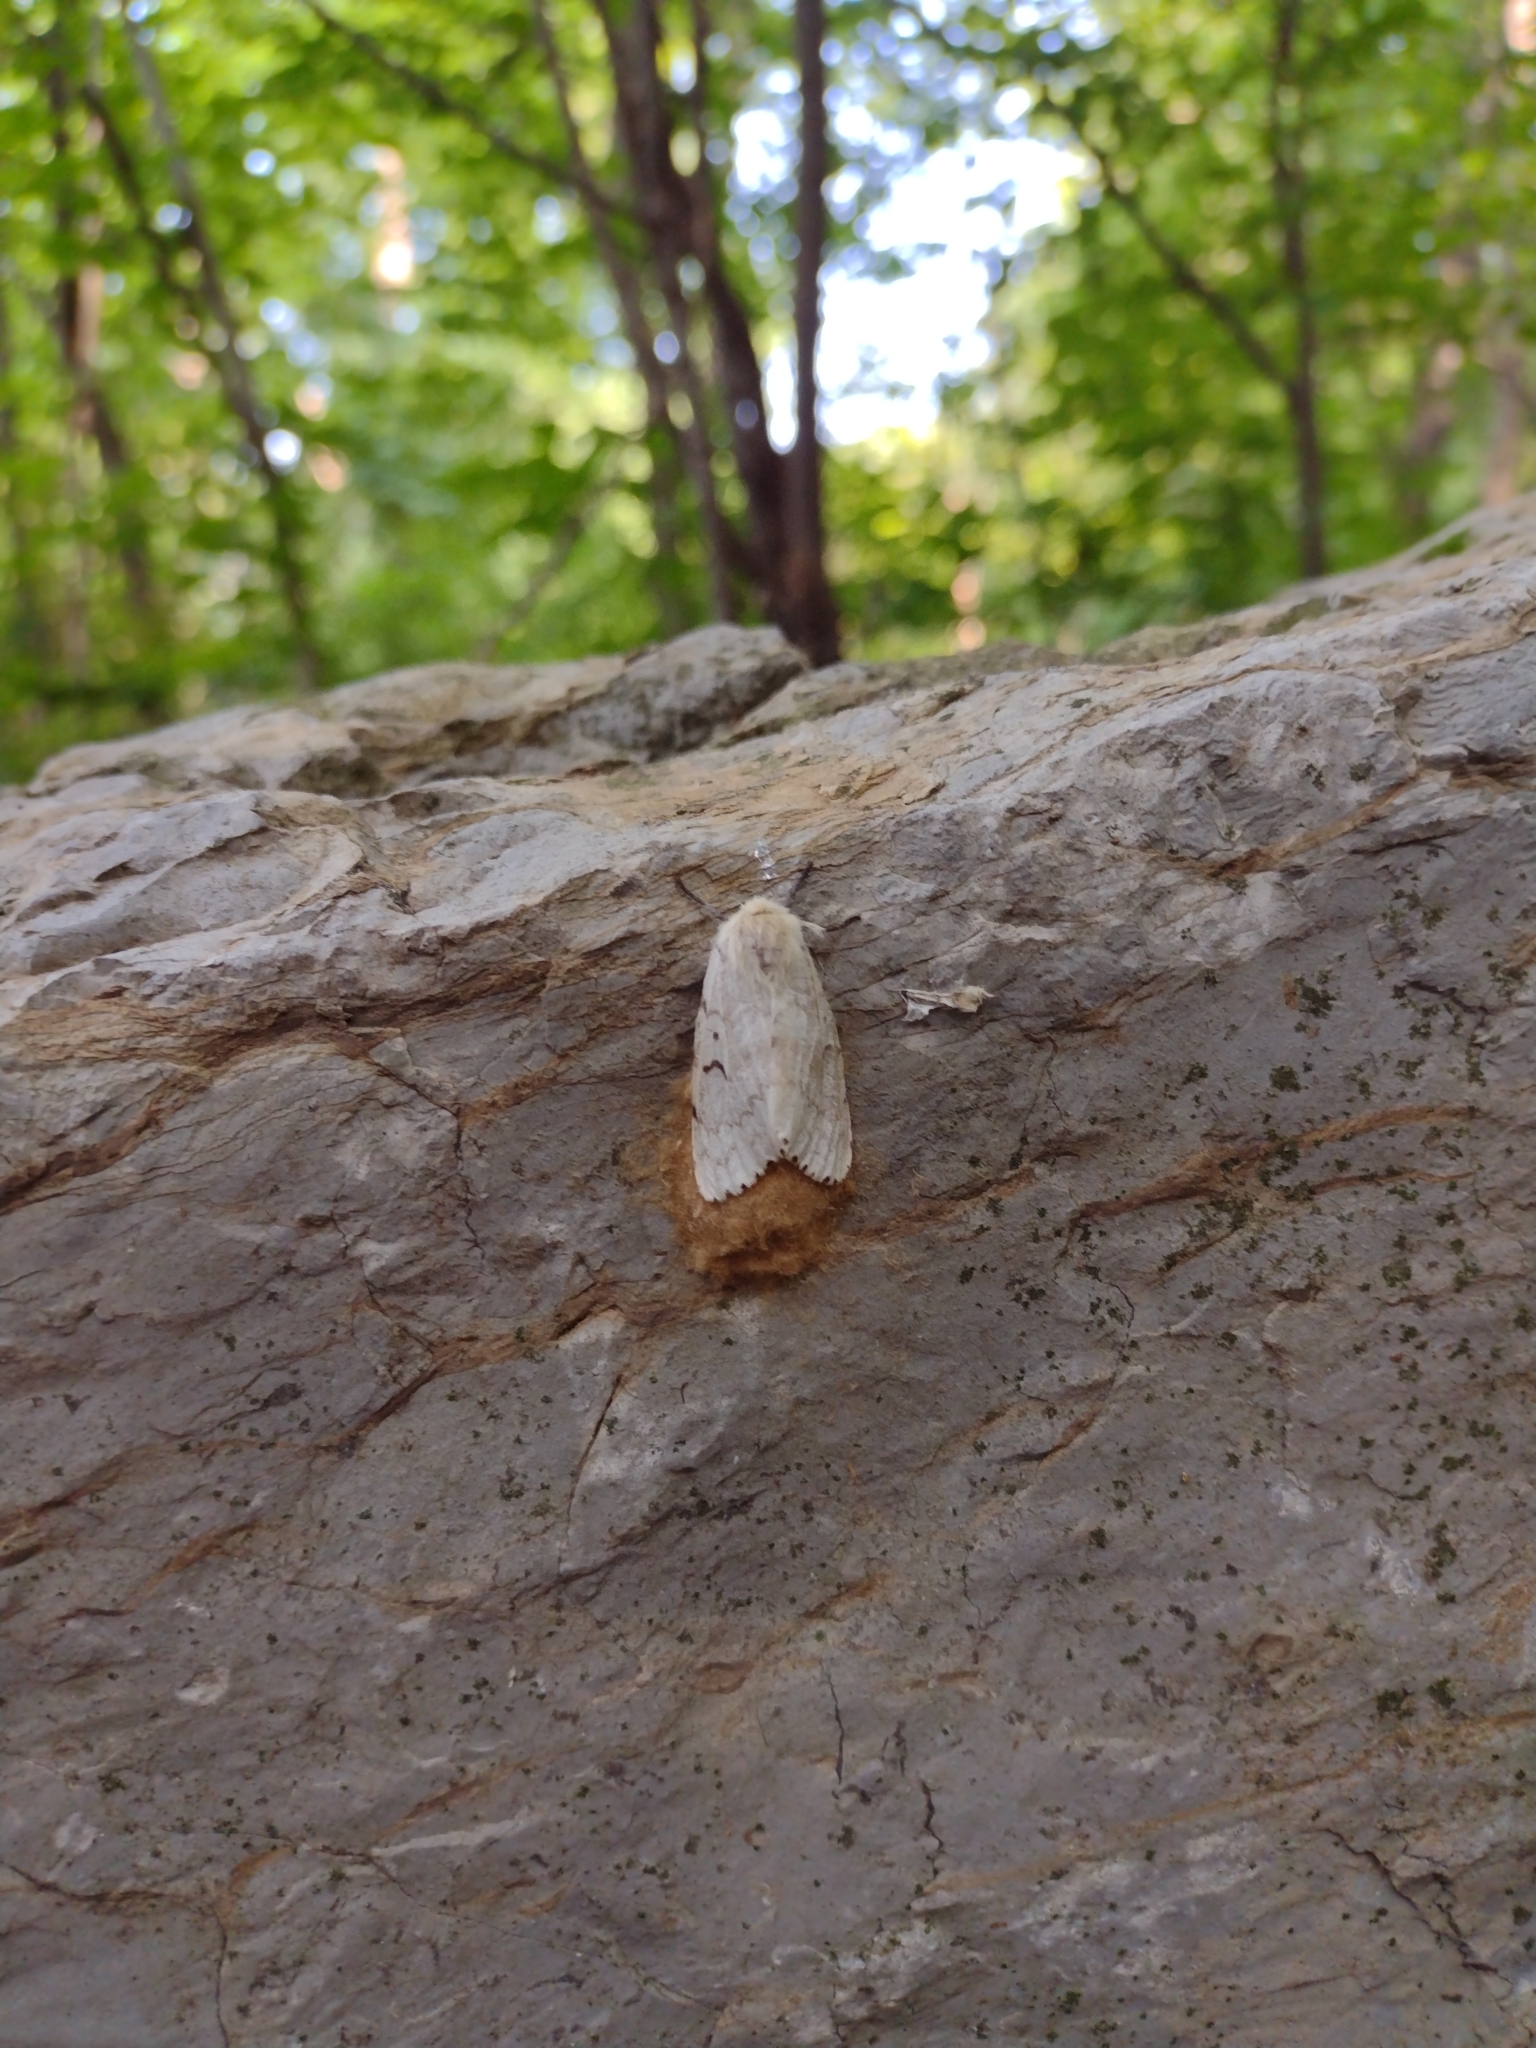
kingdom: Animalia
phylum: Arthropoda
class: Insecta
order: Lepidoptera
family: Erebidae
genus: Lymantria
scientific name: Lymantria dispar
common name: Gypsy moth
